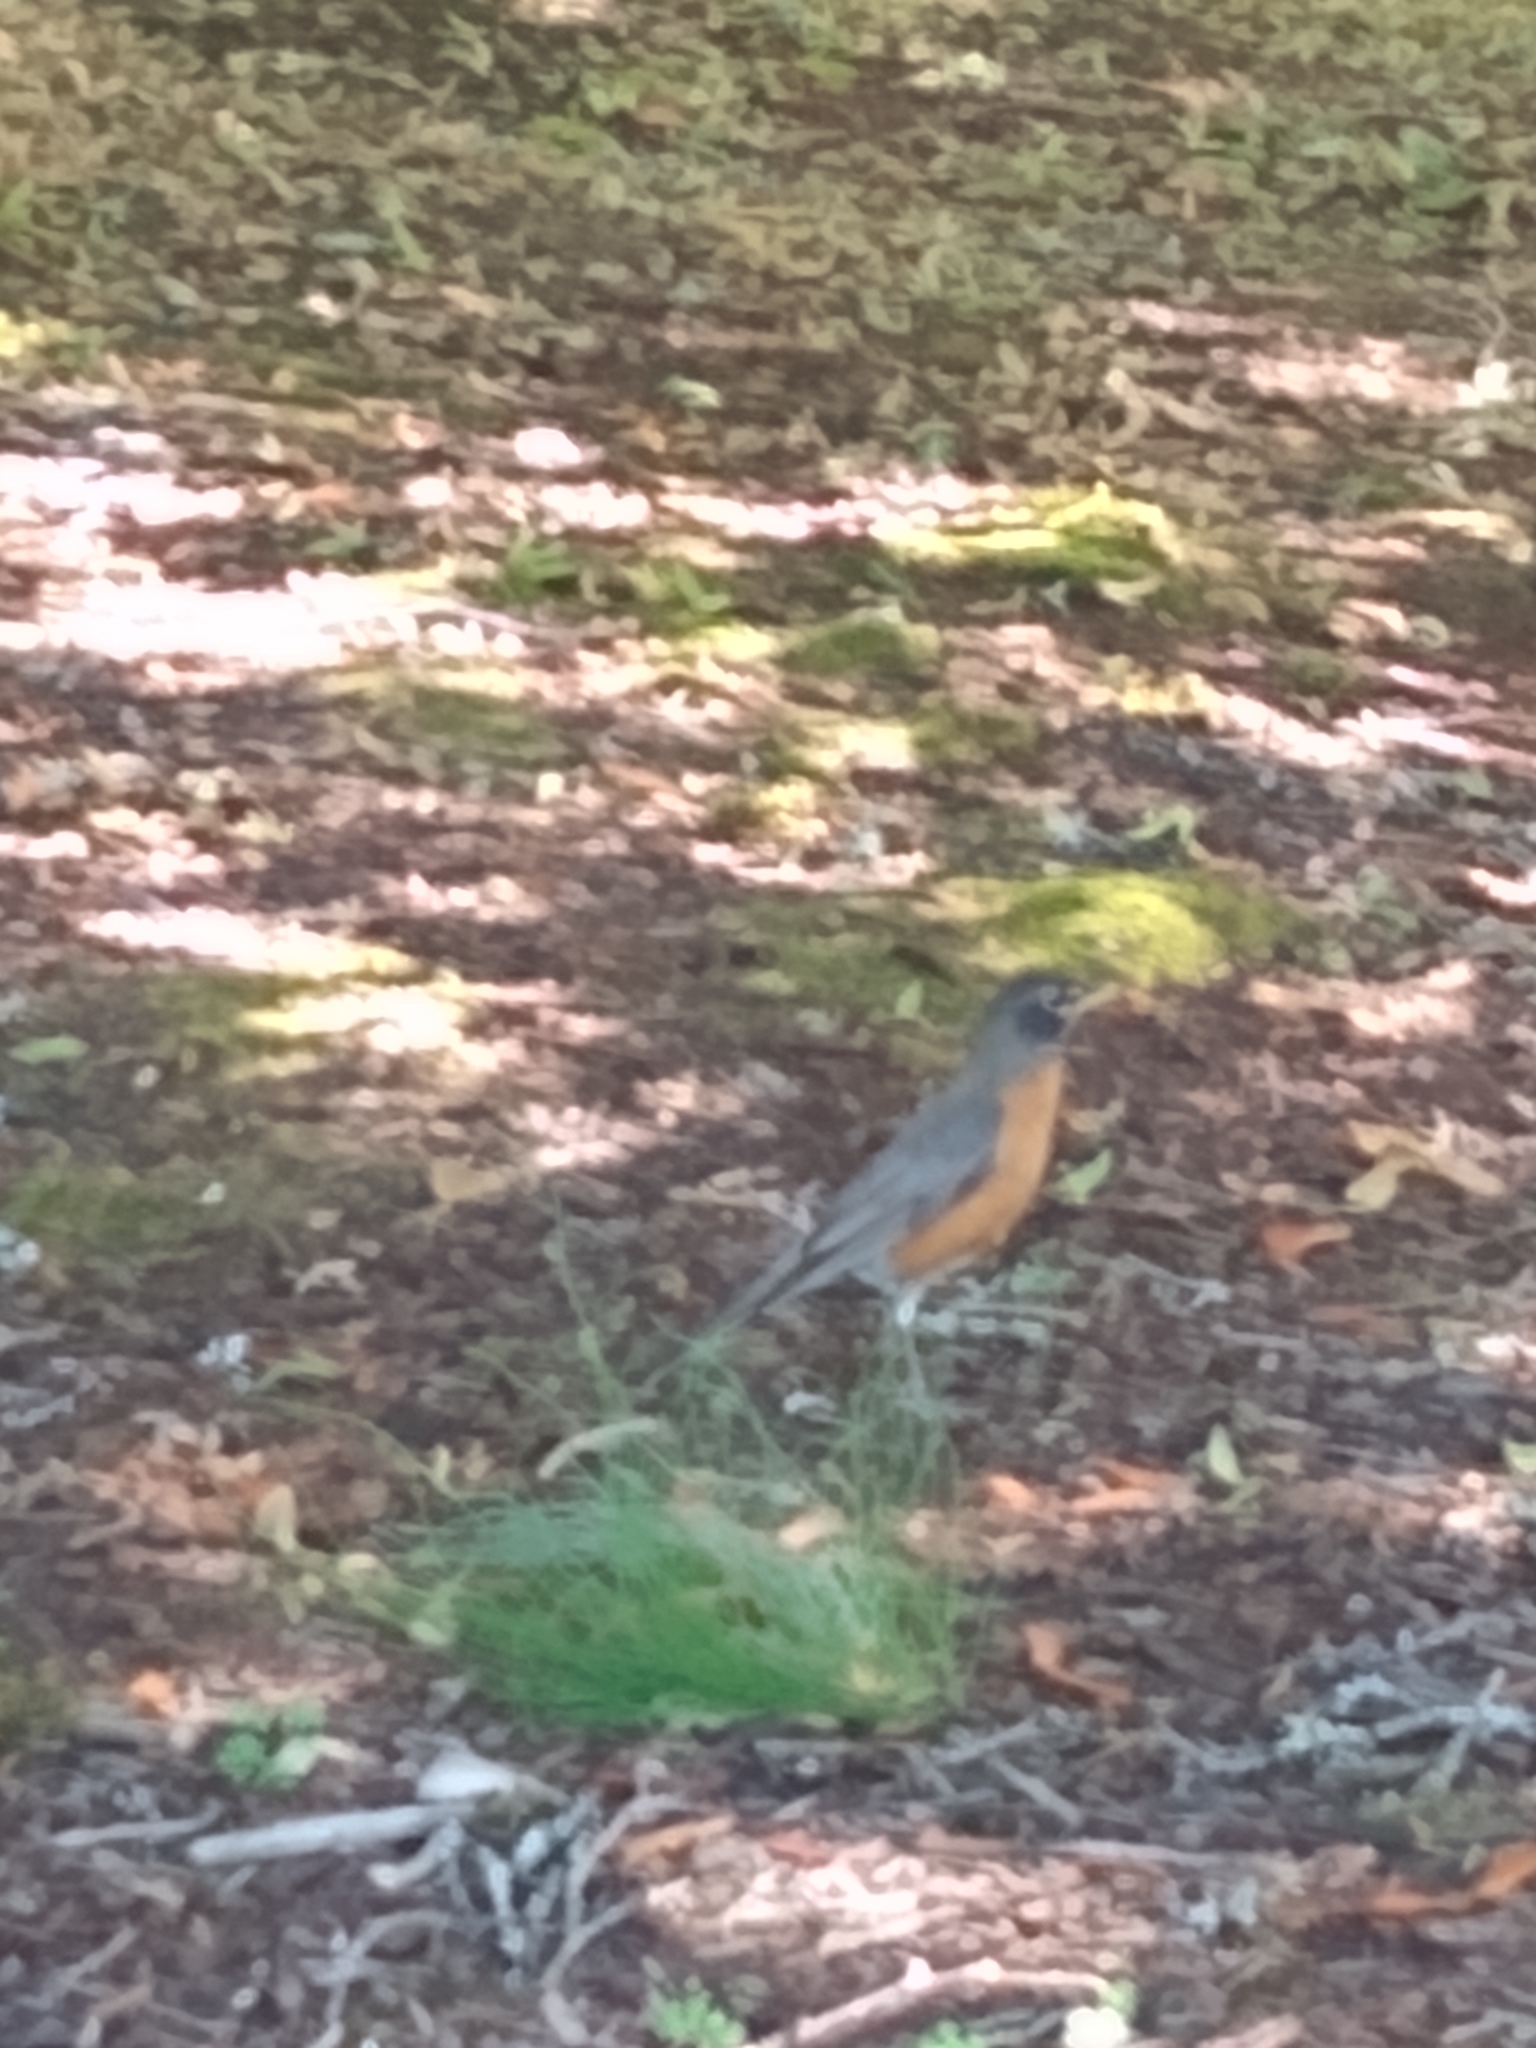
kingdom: Animalia
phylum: Chordata
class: Aves
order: Passeriformes
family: Turdidae
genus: Turdus
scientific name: Turdus migratorius
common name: American robin
